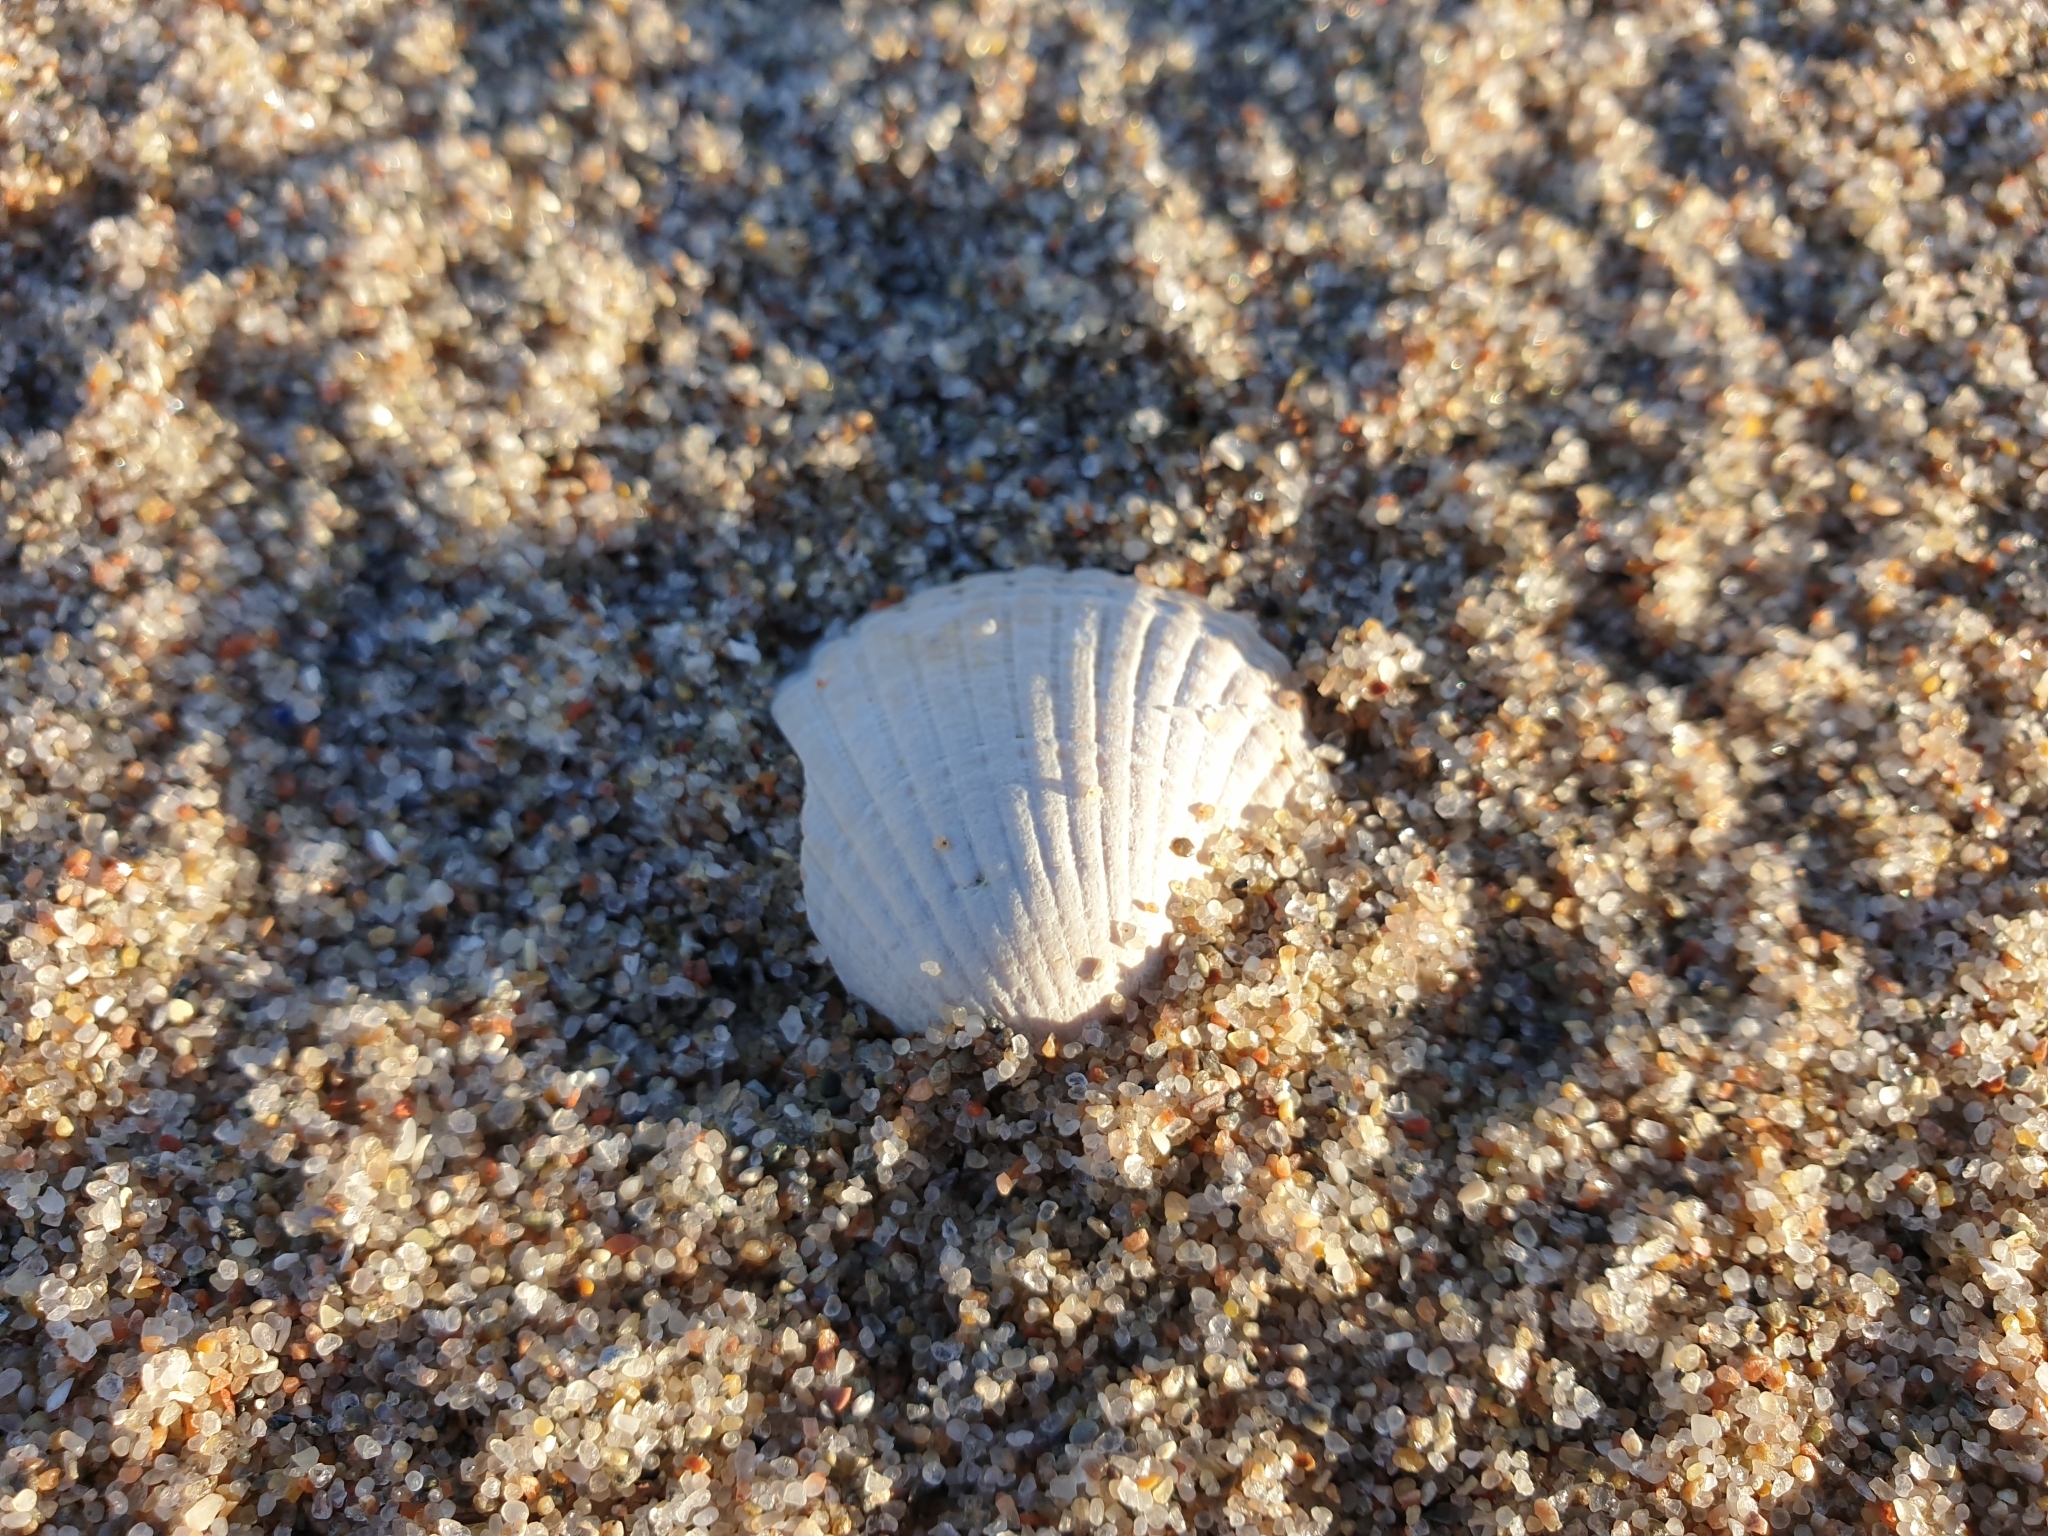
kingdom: Animalia
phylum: Mollusca
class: Bivalvia
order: Cardiida
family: Cardiidae
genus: Cerastoderma
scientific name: Cerastoderma edule
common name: Common cockle
